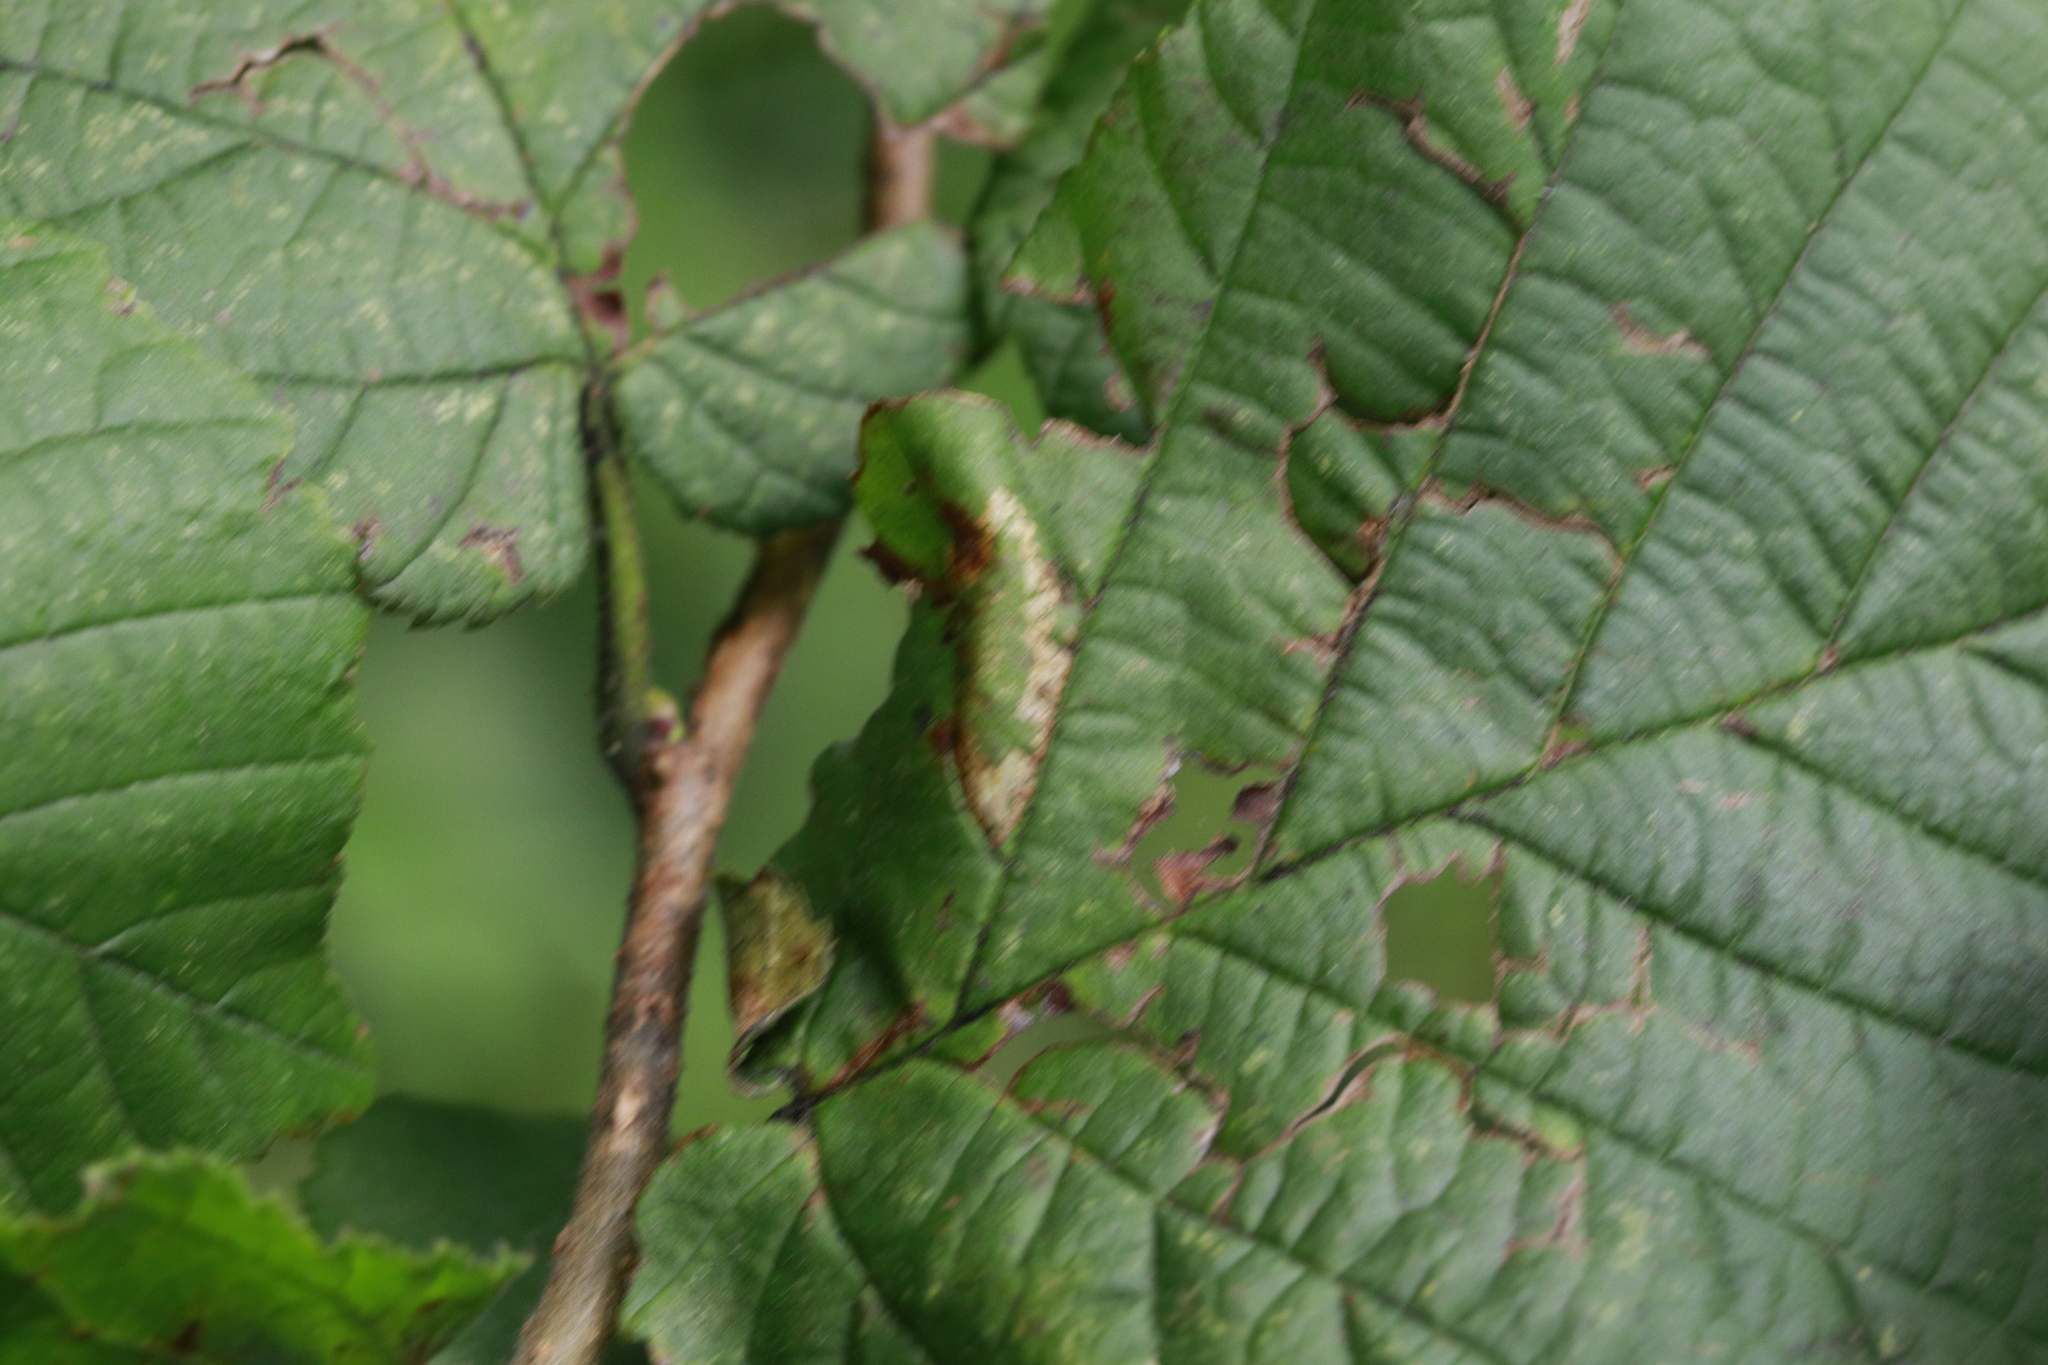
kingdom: Animalia
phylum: Arthropoda
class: Insecta
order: Lepidoptera
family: Gracillariidae
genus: Phyllonorycter
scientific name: Phyllonorycter nicellii
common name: Red hazel midget
